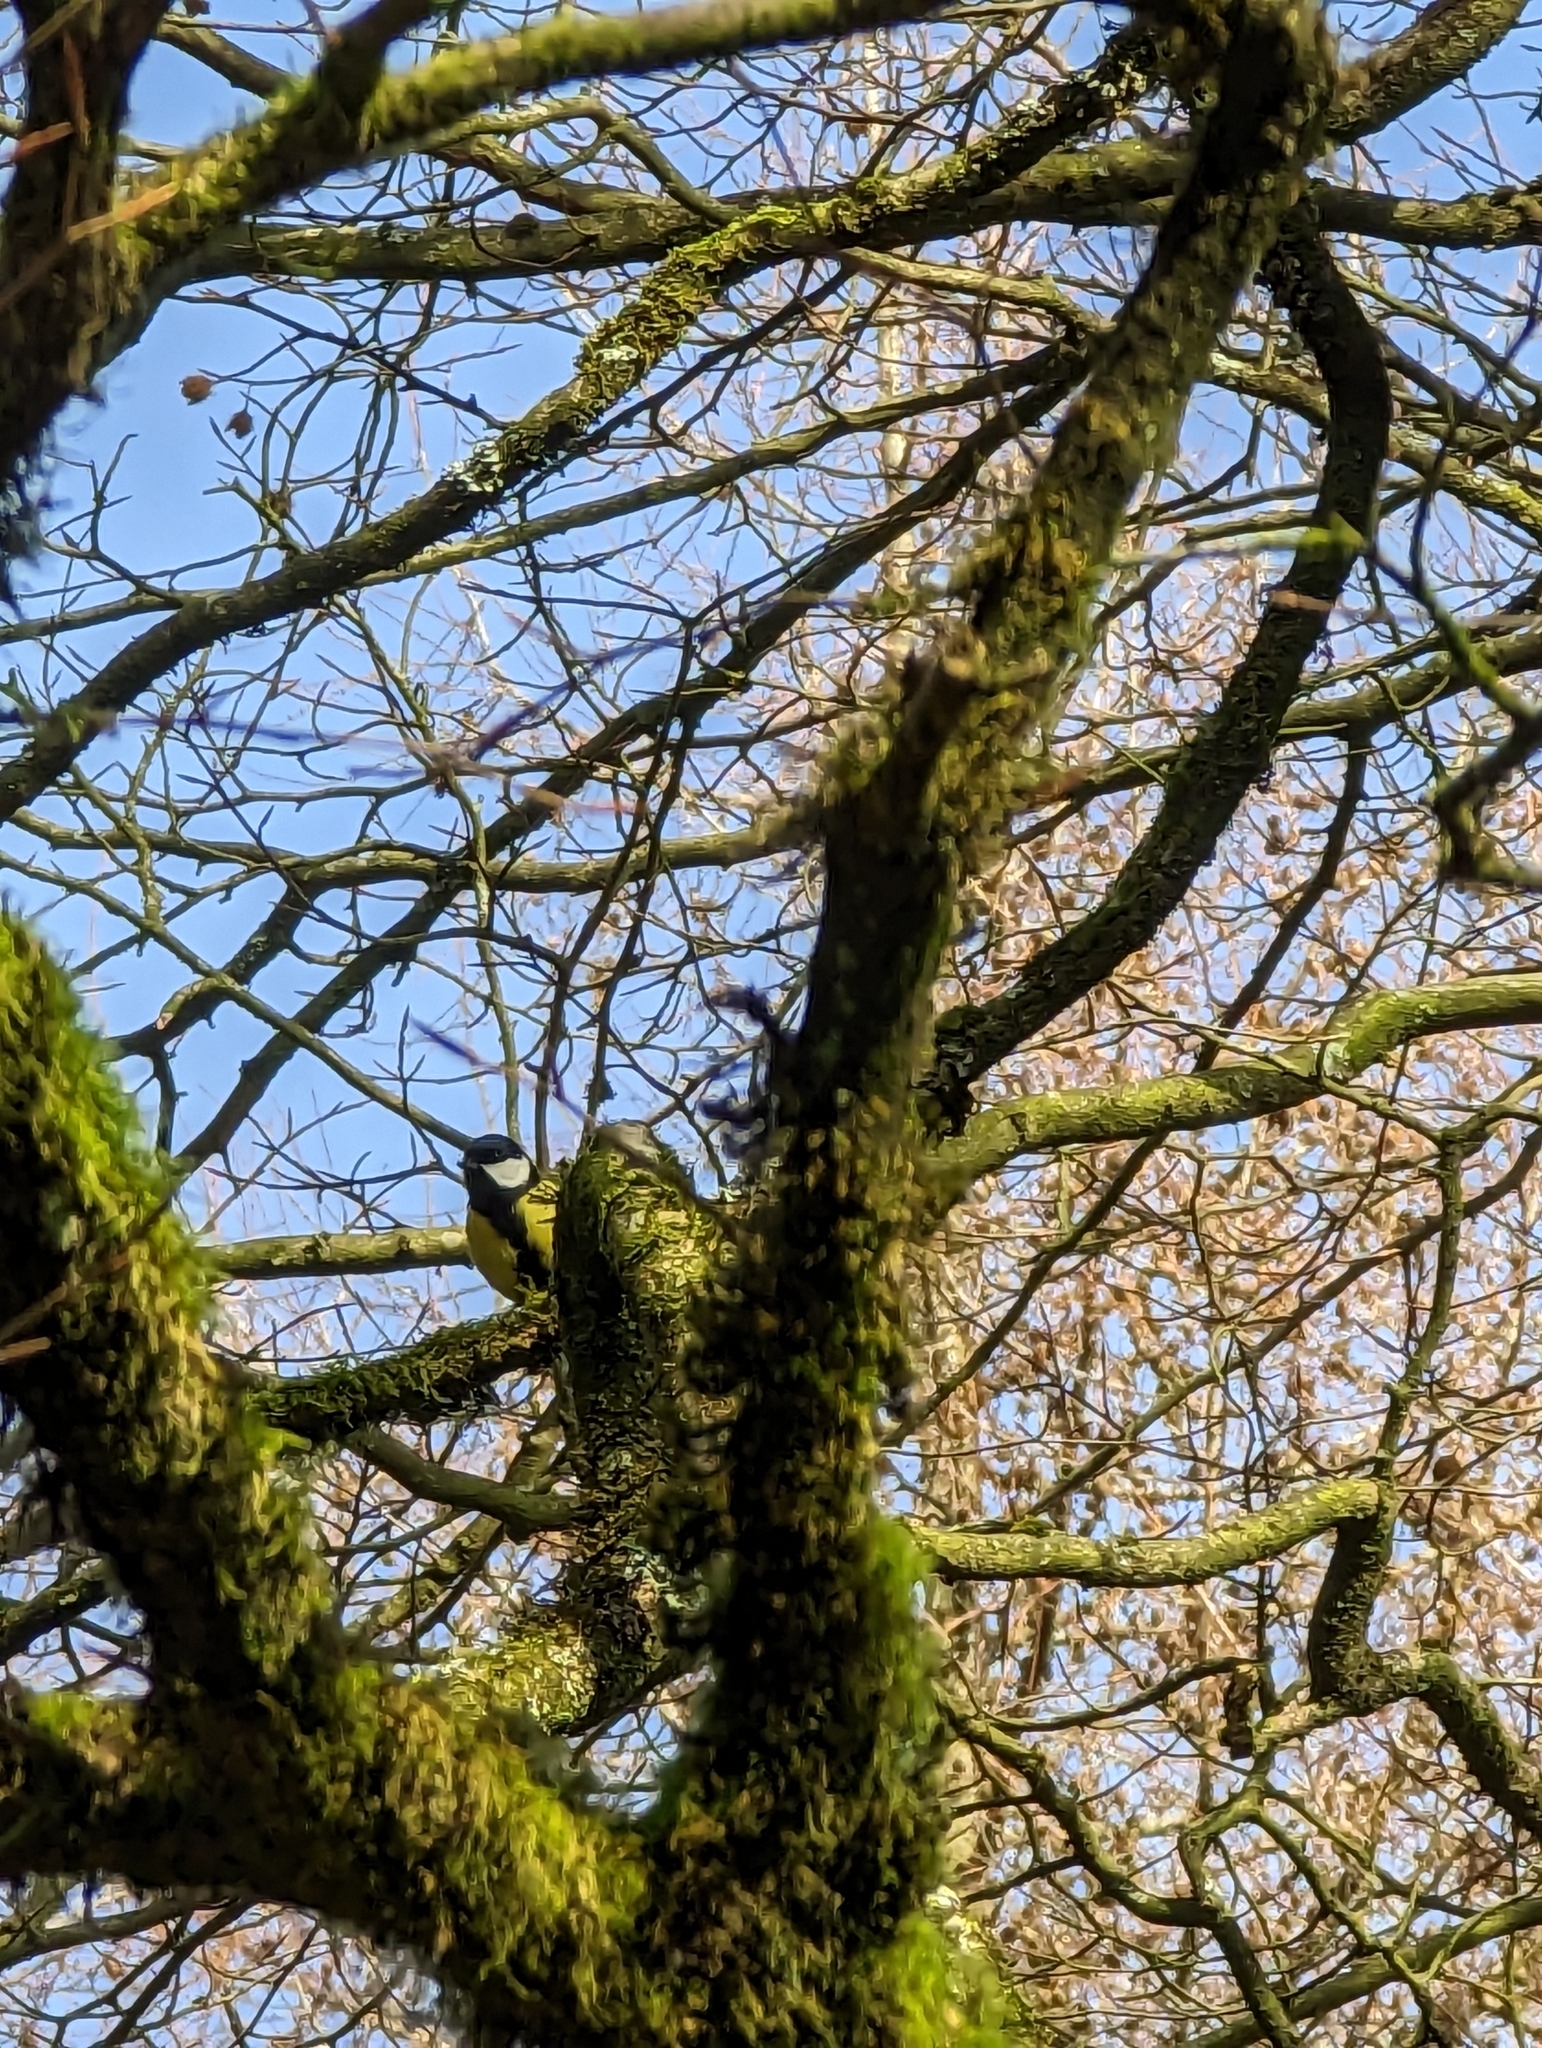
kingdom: Animalia
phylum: Chordata
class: Aves
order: Passeriformes
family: Paridae
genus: Parus
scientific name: Parus major
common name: Great tit
